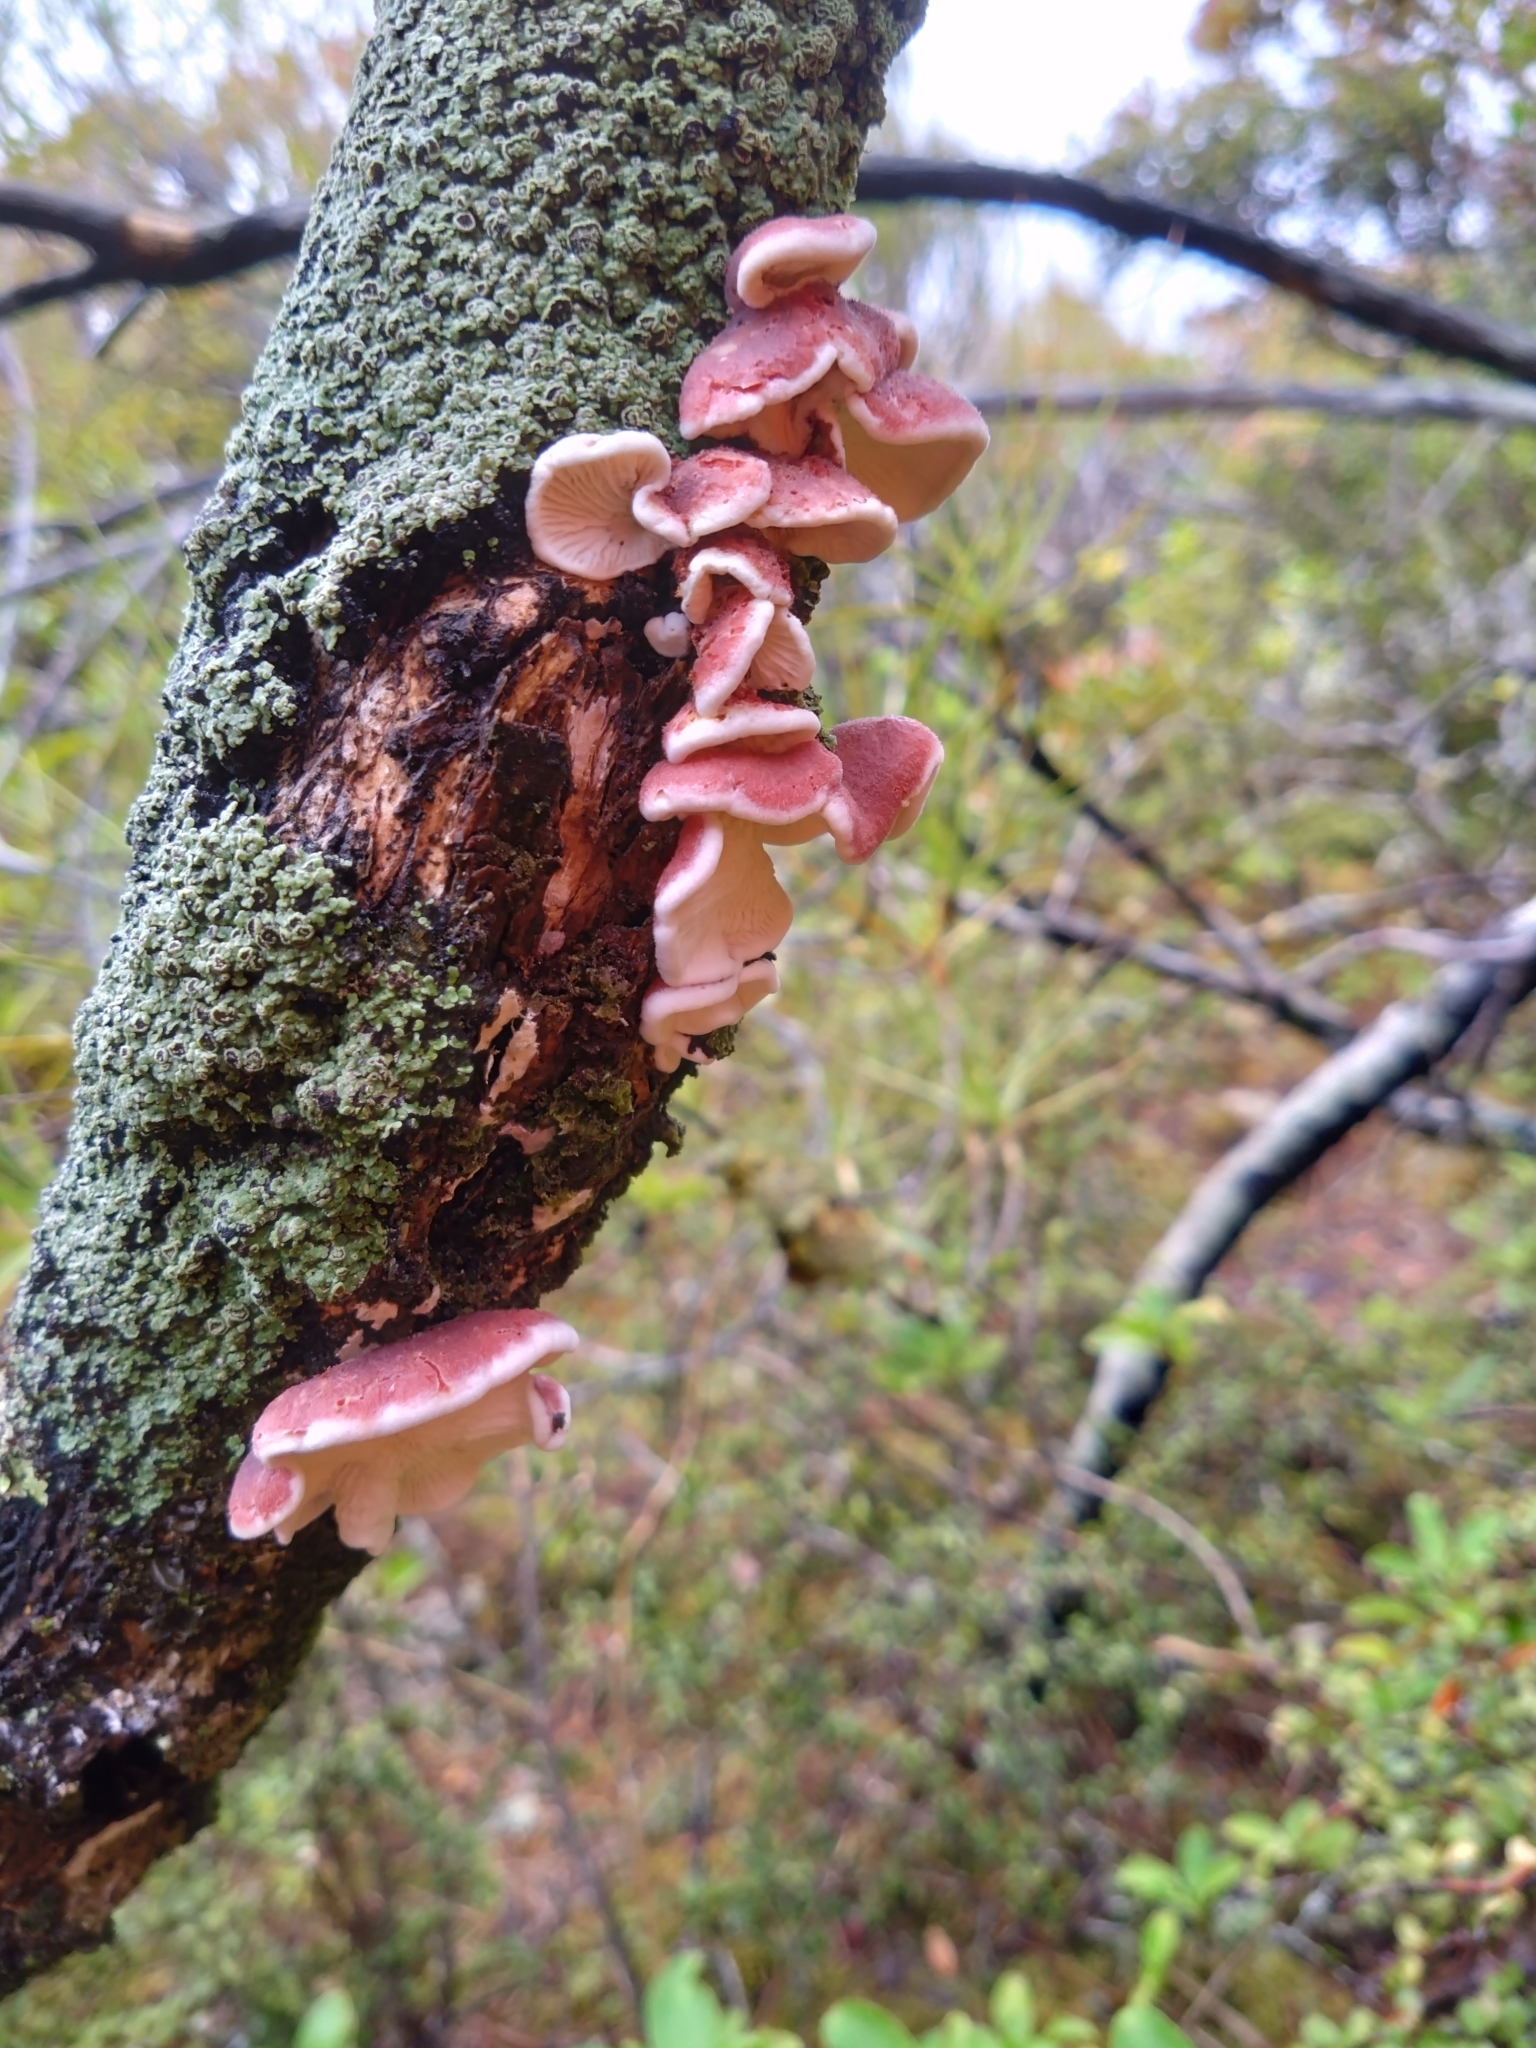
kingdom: Fungi
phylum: Basidiomycota
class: Agaricomycetes
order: Polyporales
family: Meruliaceae
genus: Phlebia
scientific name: Phlebia
